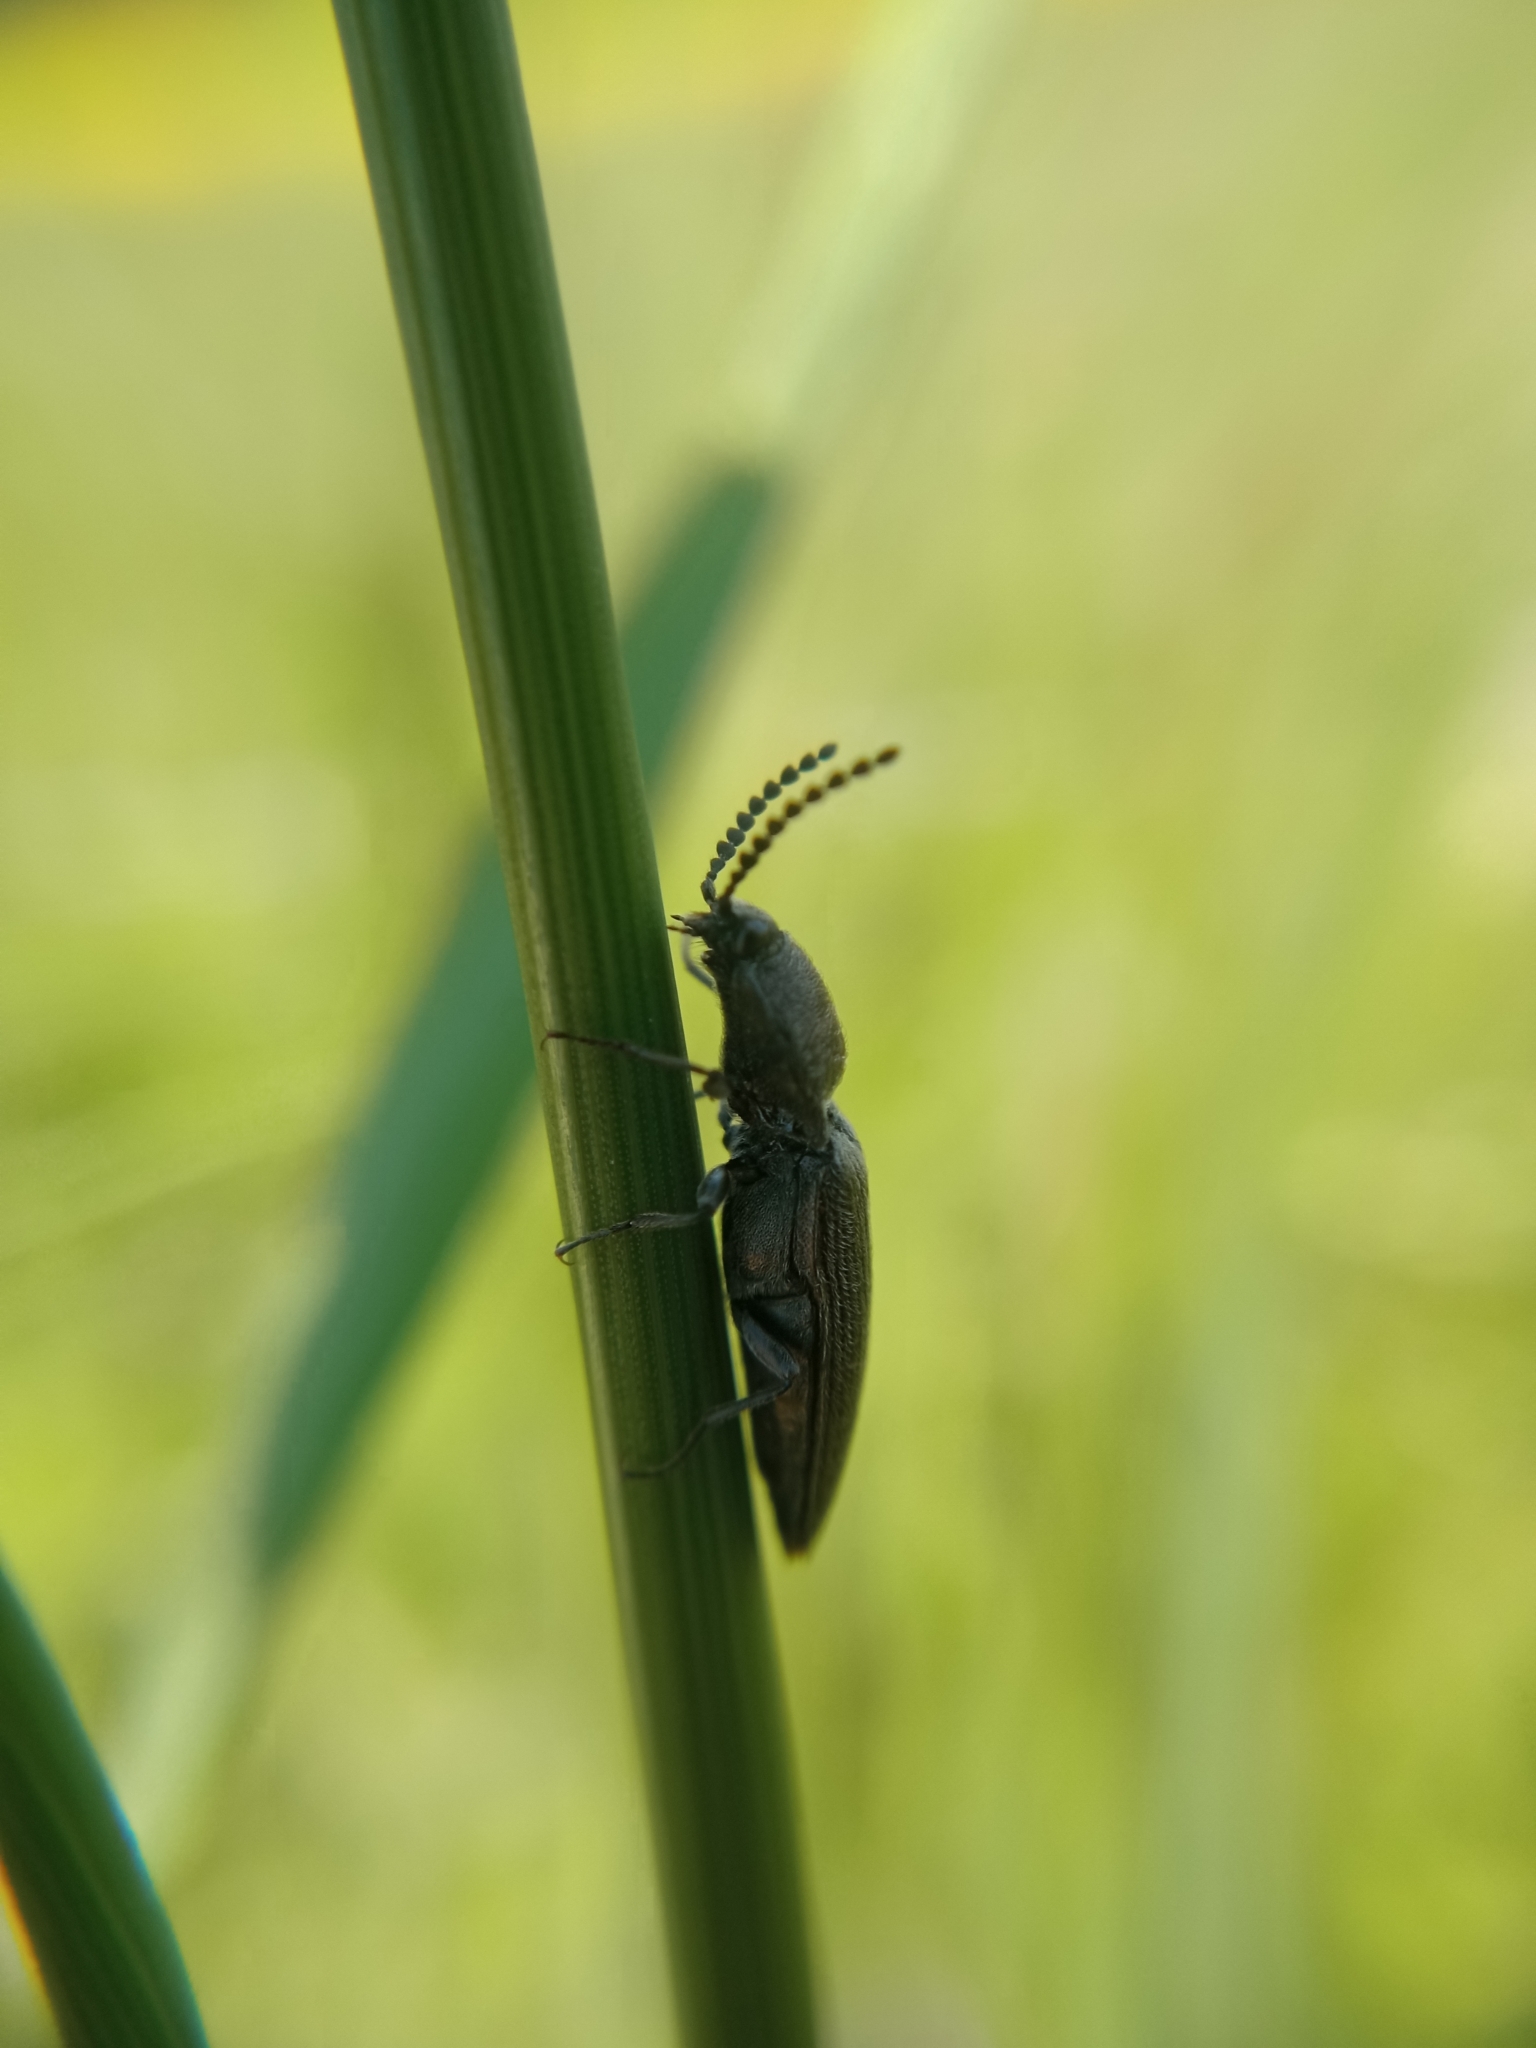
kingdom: Animalia
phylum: Arthropoda
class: Insecta
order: Coleoptera
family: Elateridae
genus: Cidnopus
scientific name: Cidnopus pilosus
